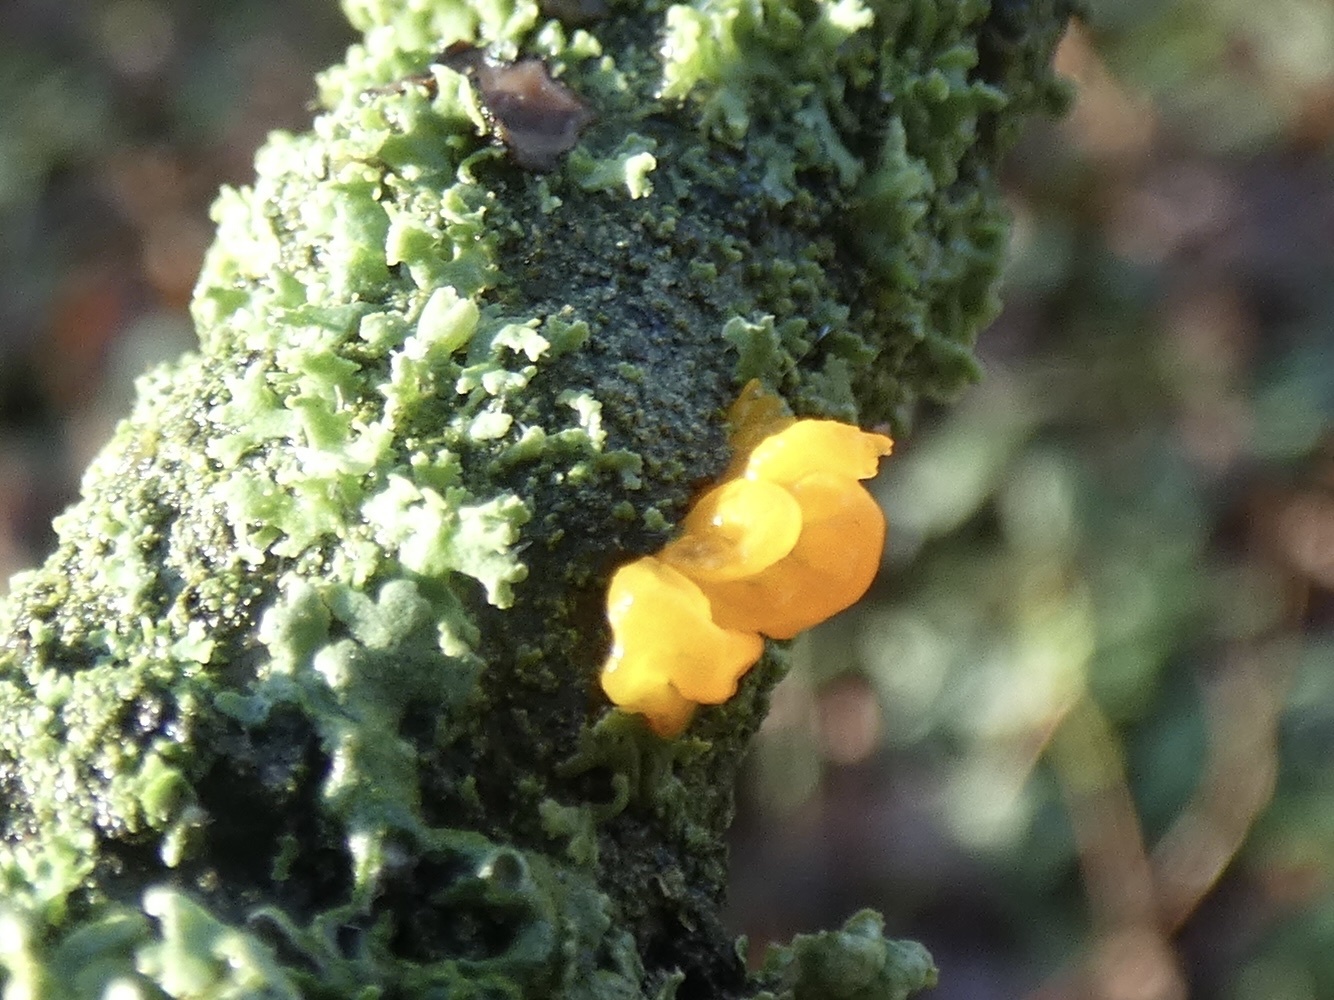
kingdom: Fungi
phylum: Basidiomycota
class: Tremellomycetes
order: Tremellales
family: Tremellaceae
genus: Tremella
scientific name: Tremella mesenterica
